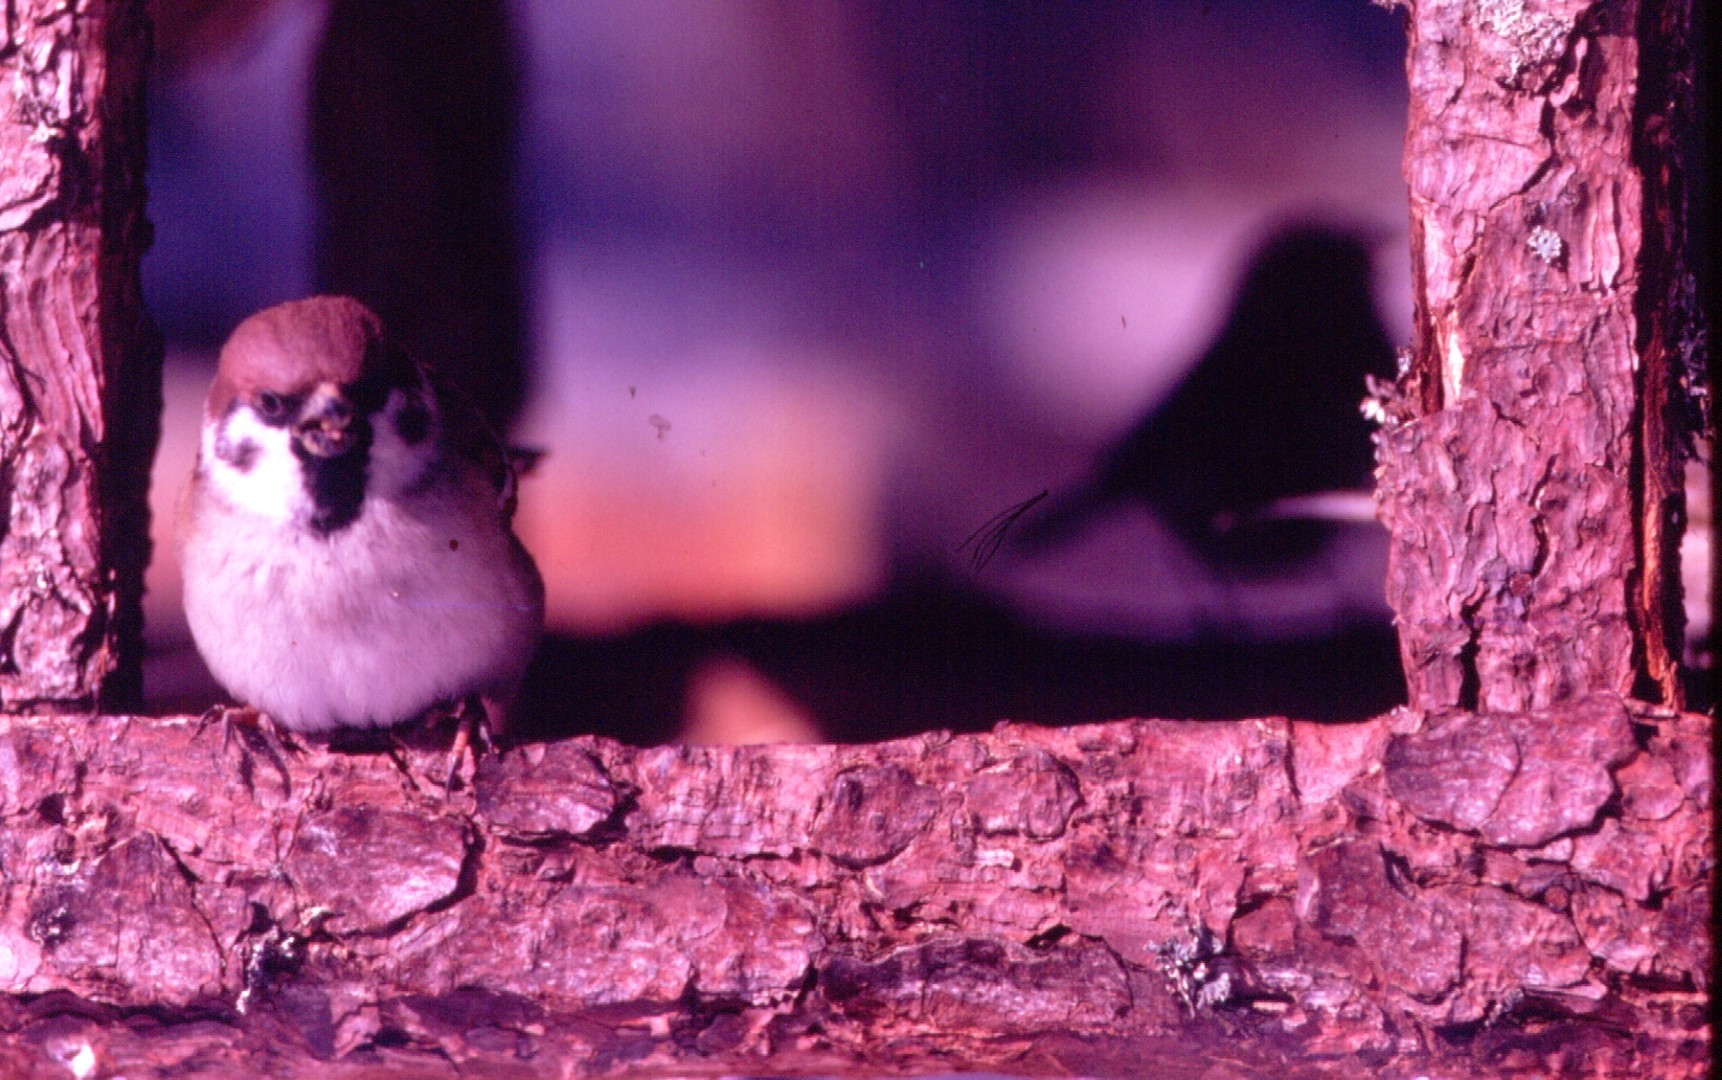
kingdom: Animalia
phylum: Chordata
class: Aves
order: Passeriformes
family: Passeridae
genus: Passer
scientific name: Passer montanus
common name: Eurasian tree sparrow
